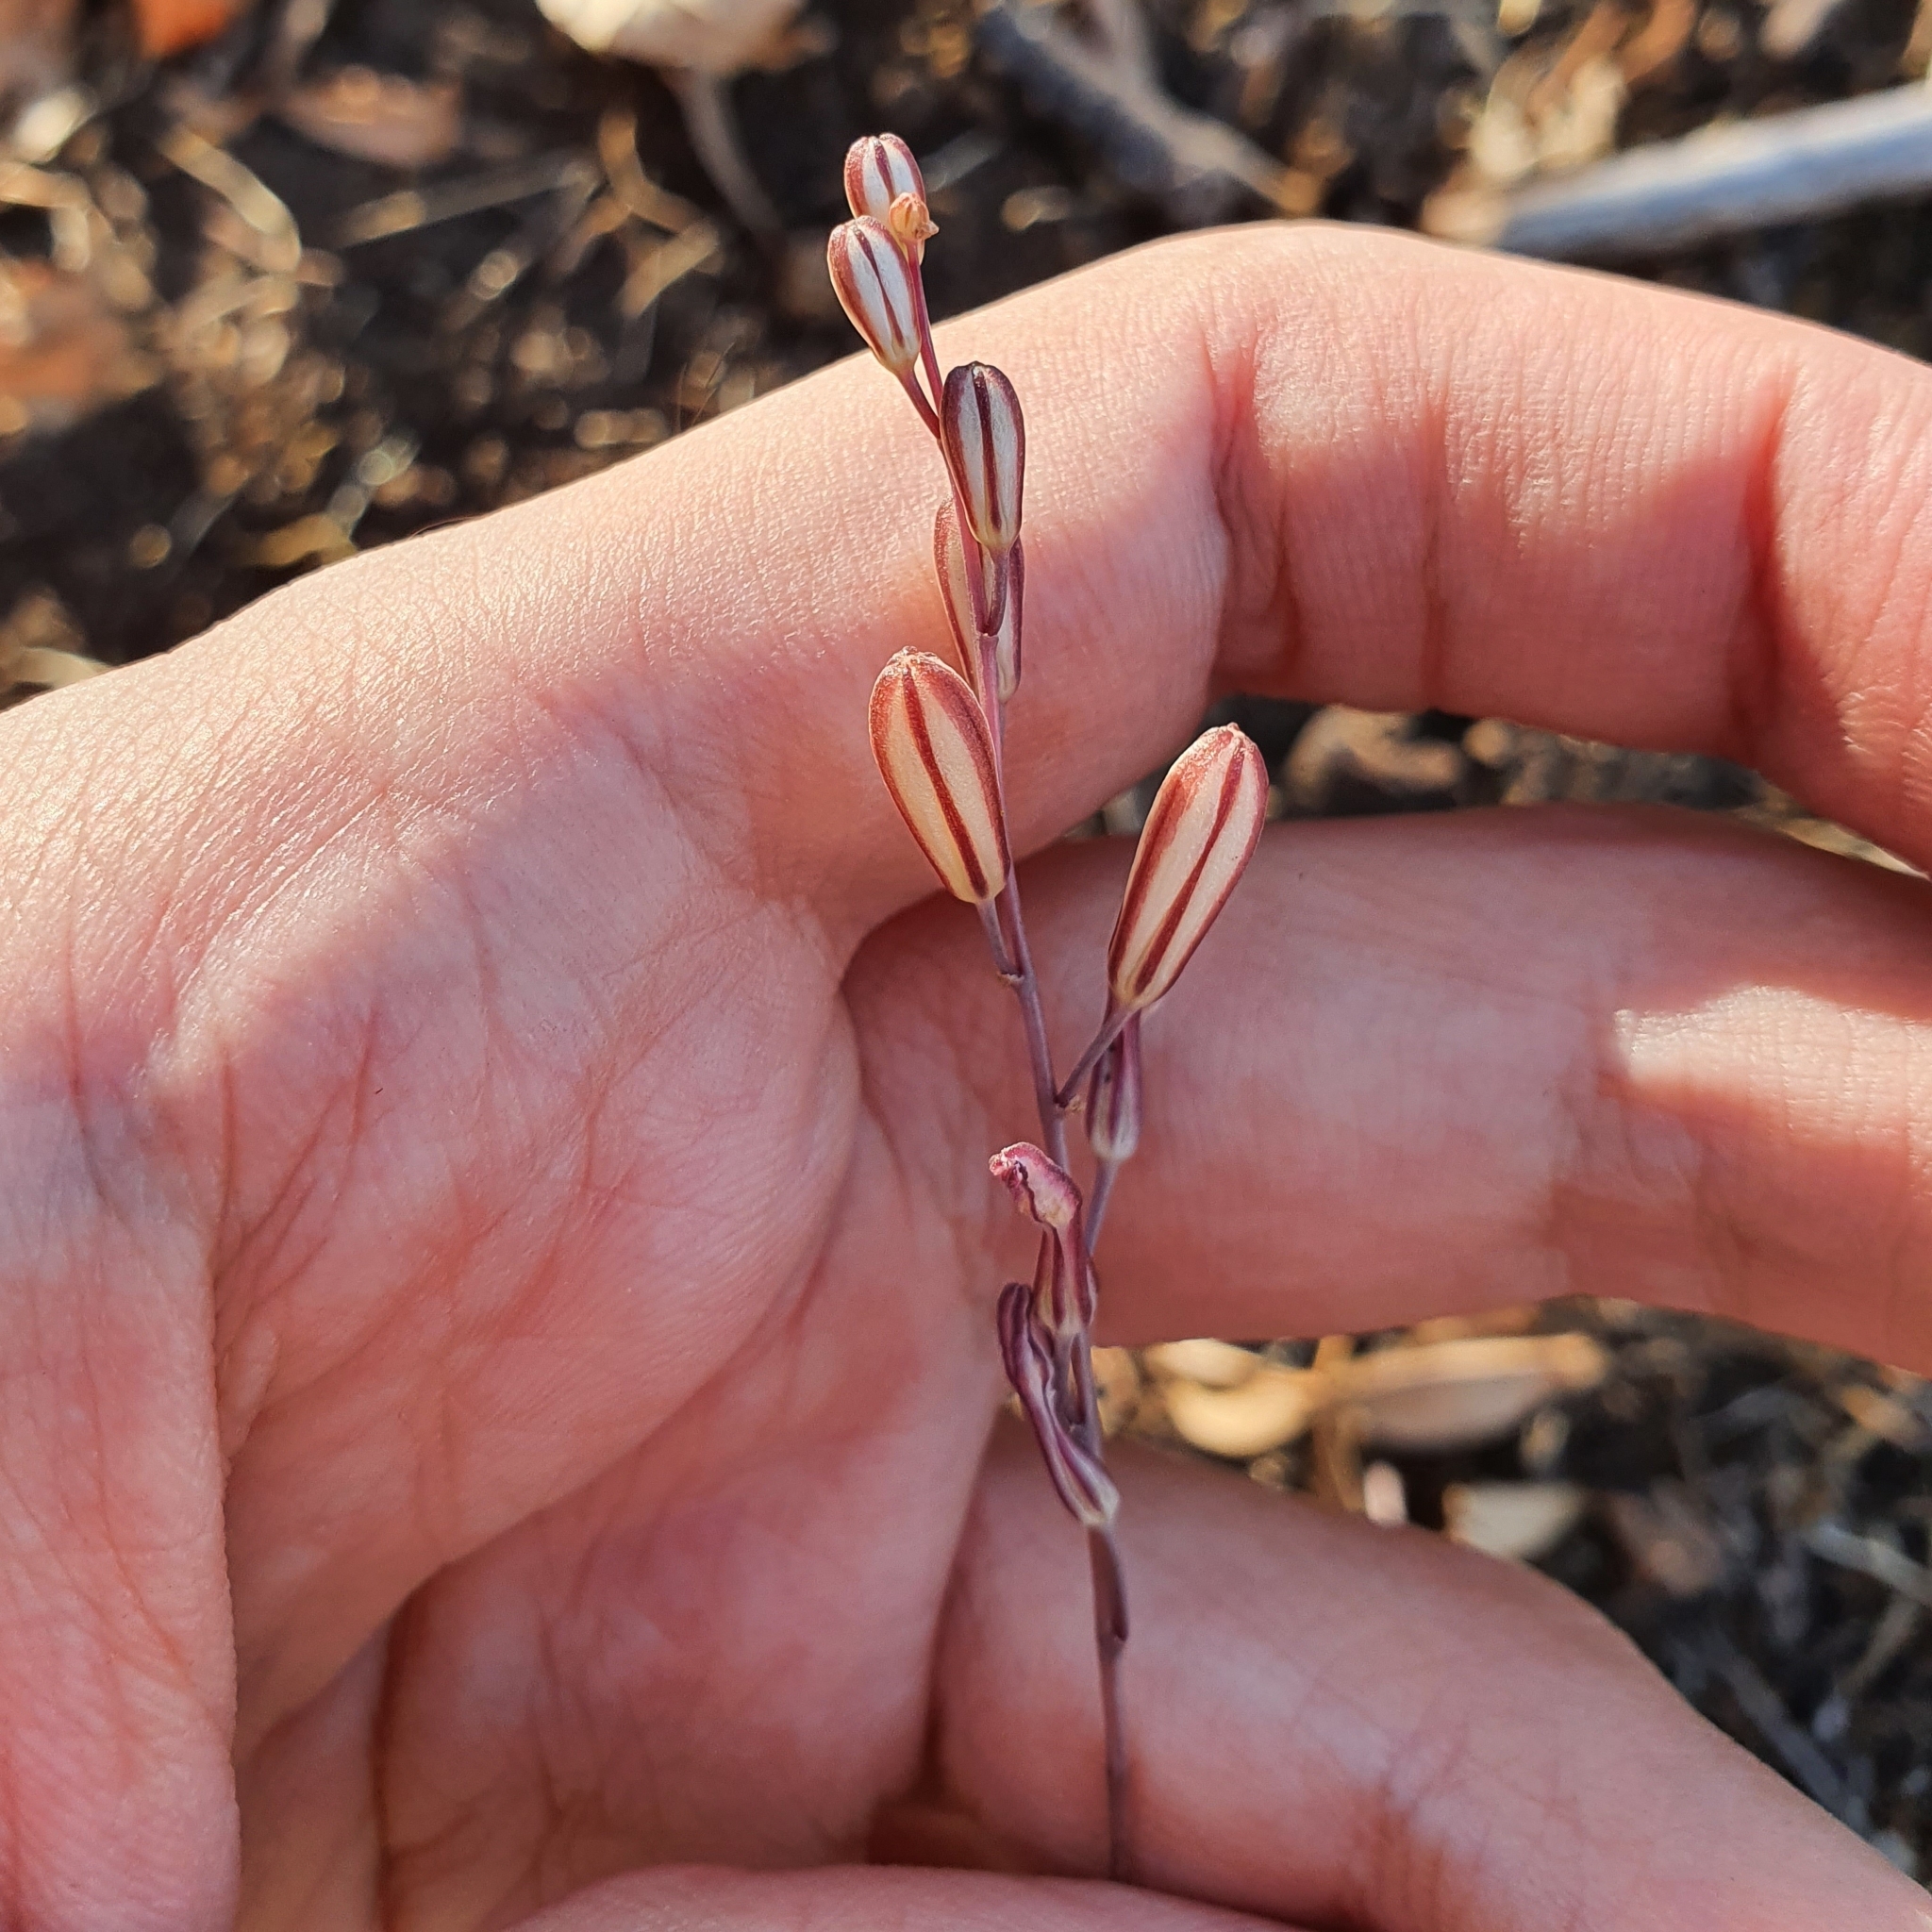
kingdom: Plantae
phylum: Tracheophyta
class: Liliopsida
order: Asparagales
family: Asparagaceae
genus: Drimia
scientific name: Drimia fugax
